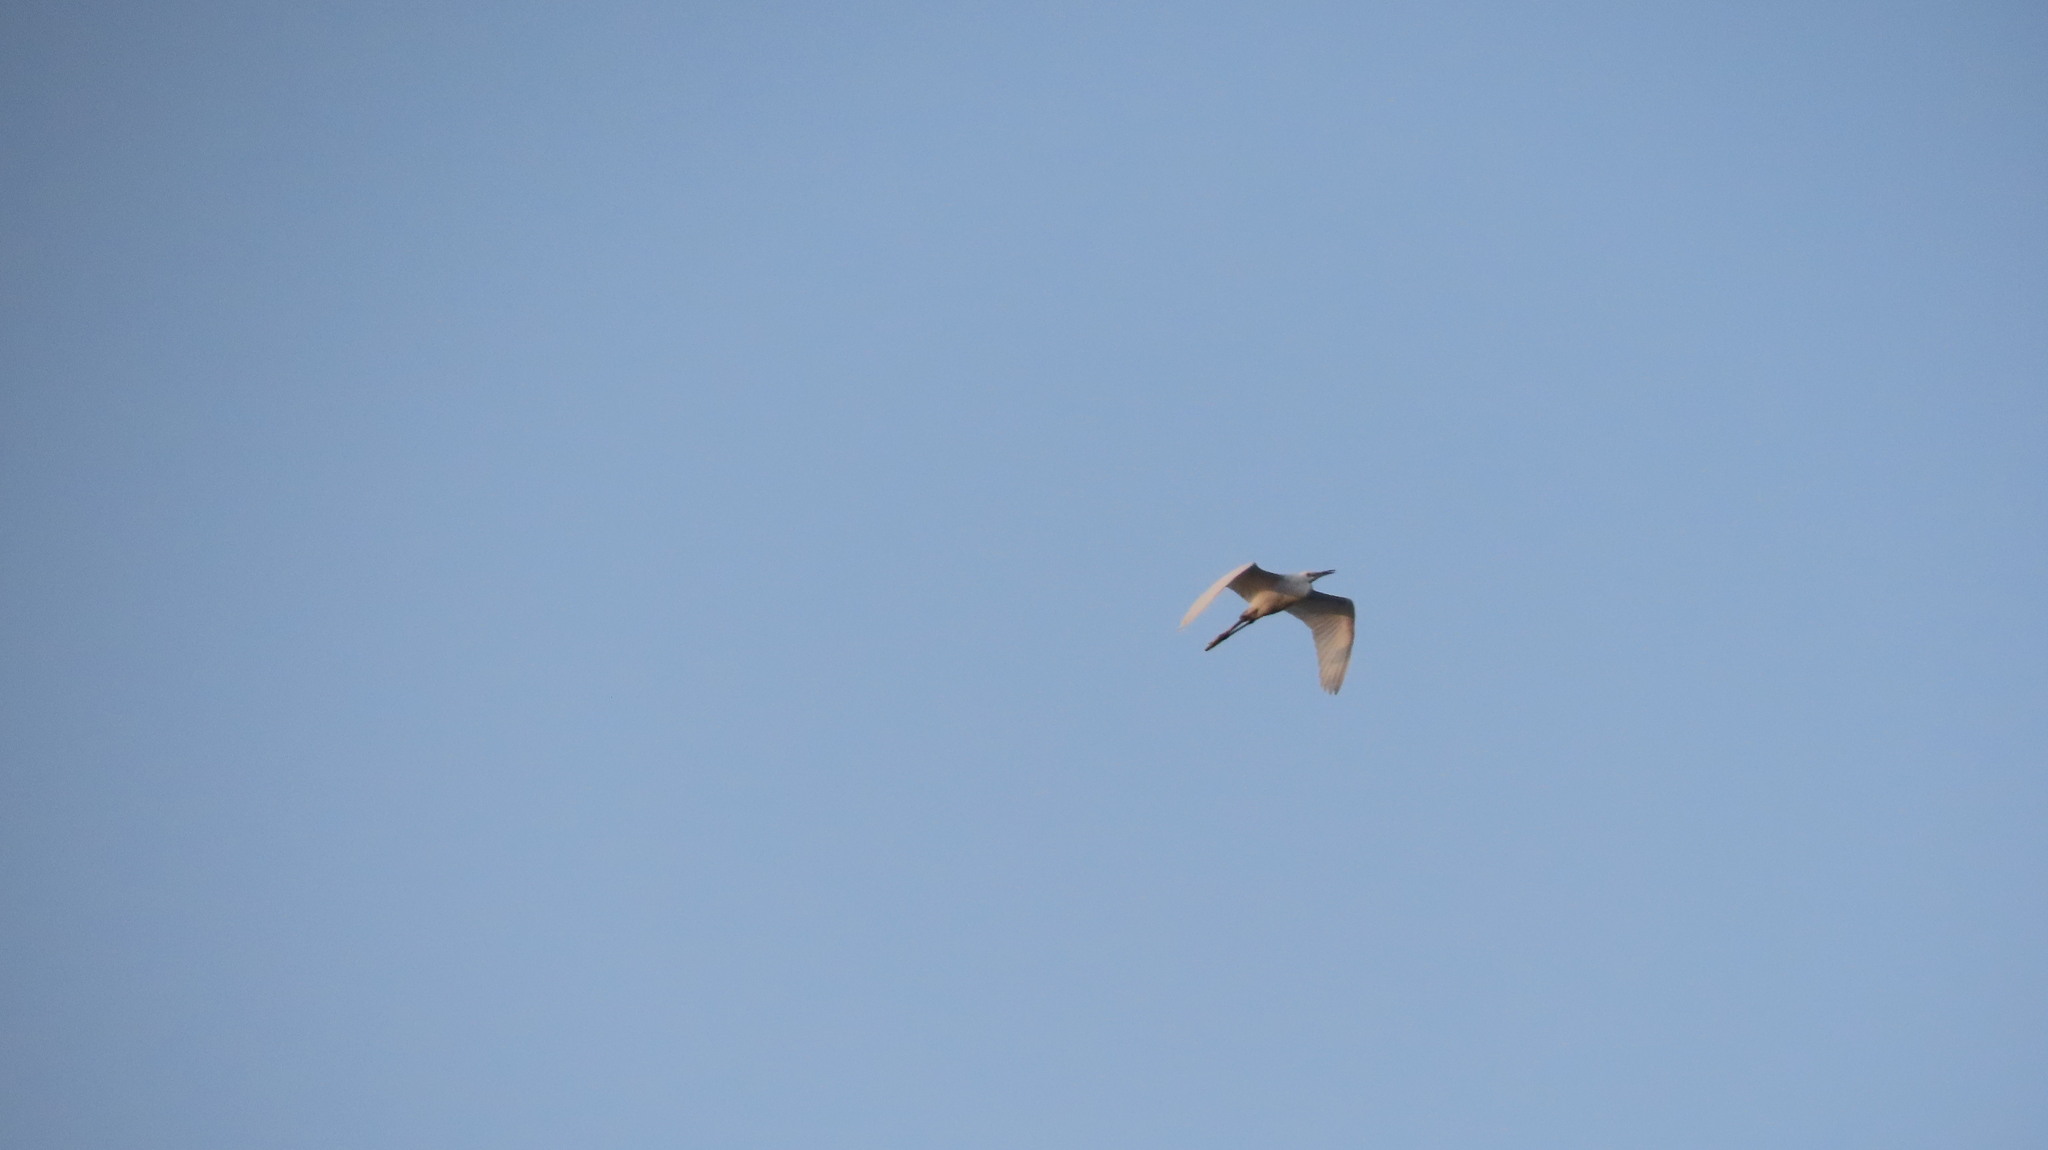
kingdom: Animalia
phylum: Chordata
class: Aves
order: Pelecaniformes
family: Ardeidae
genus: Bubulcus
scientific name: Bubulcus coromandus
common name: Eastern cattle egret
